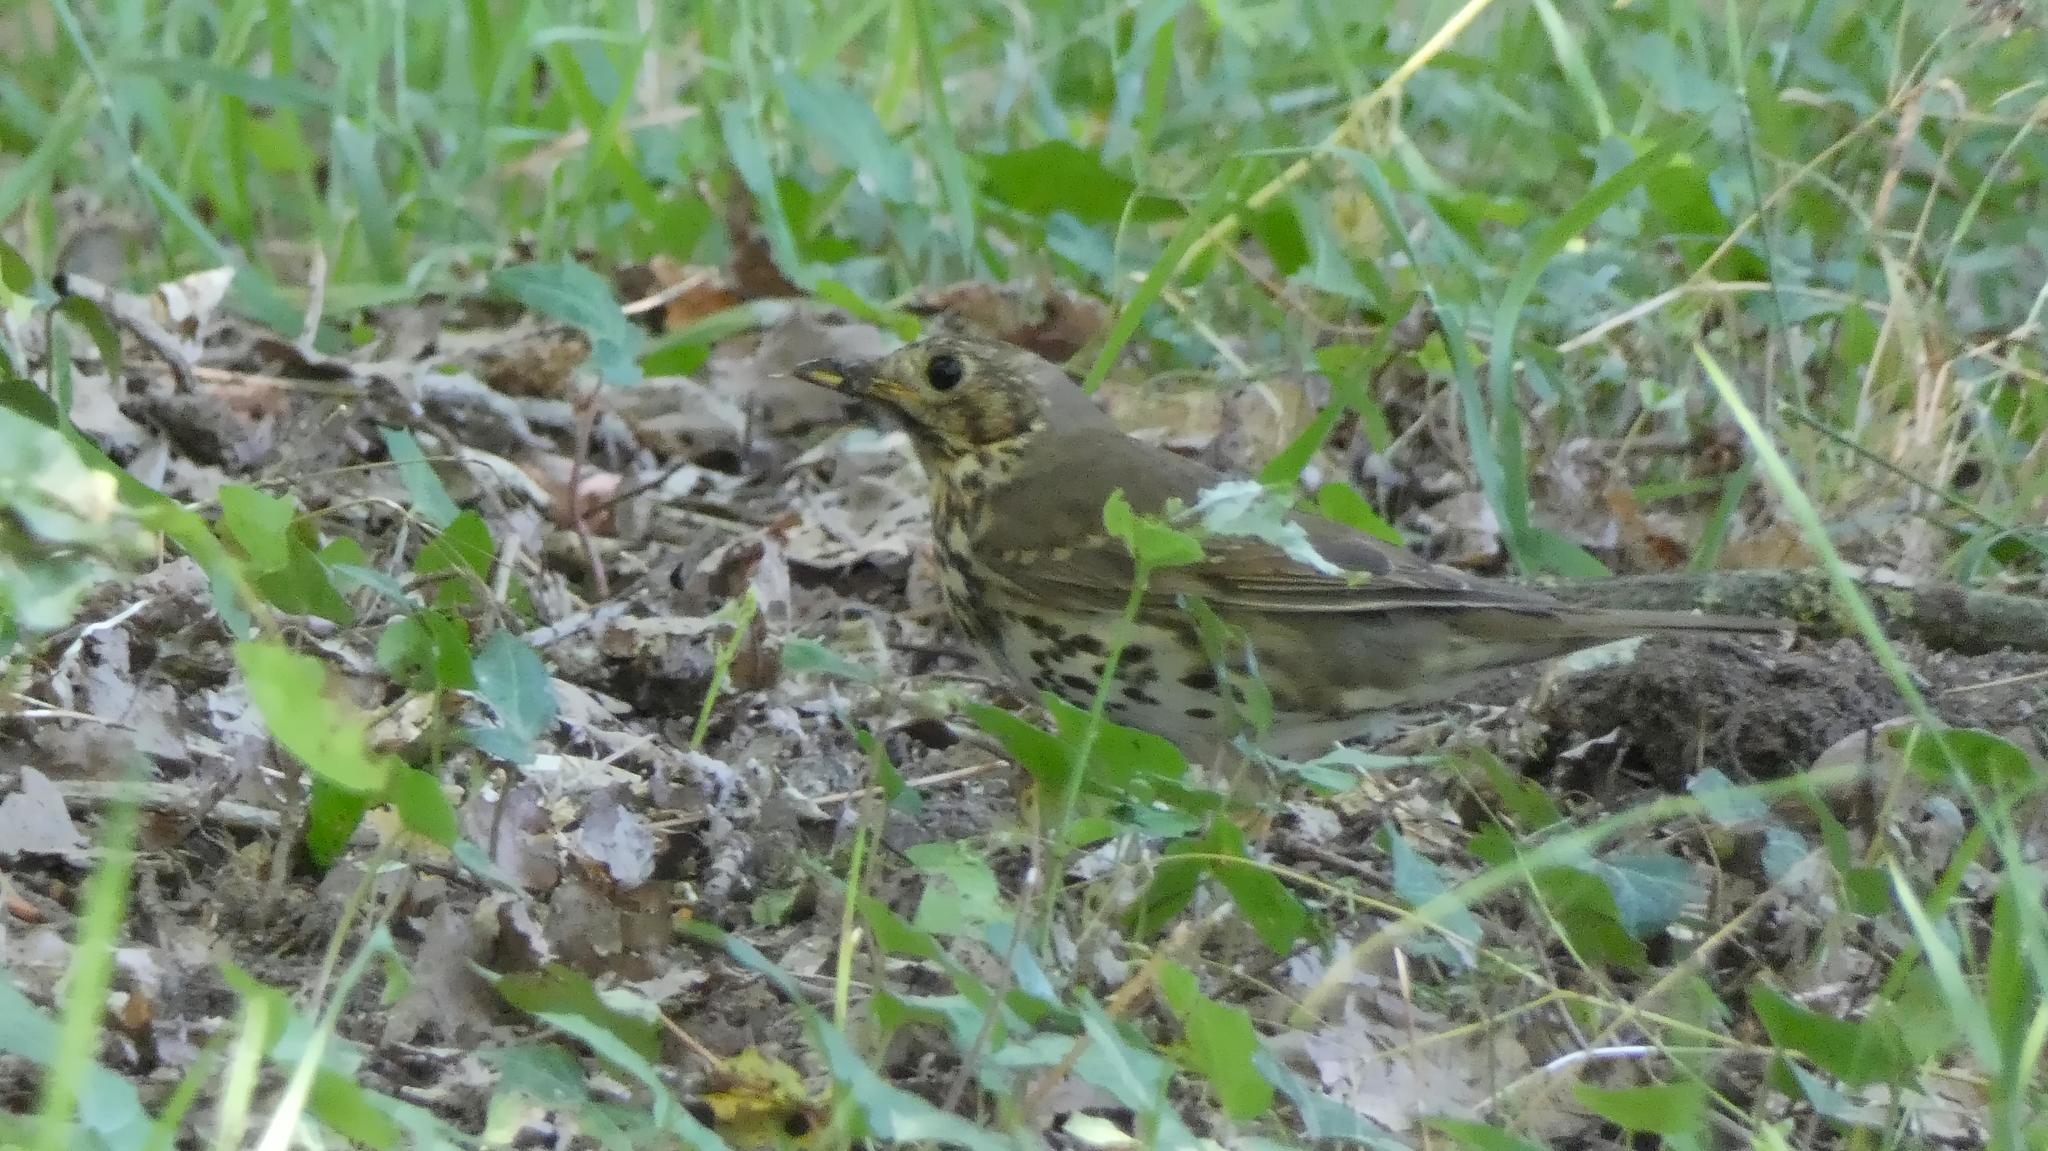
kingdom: Animalia
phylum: Chordata
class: Aves
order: Passeriformes
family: Turdidae
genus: Turdus
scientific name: Turdus philomelos
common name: Song thrush
